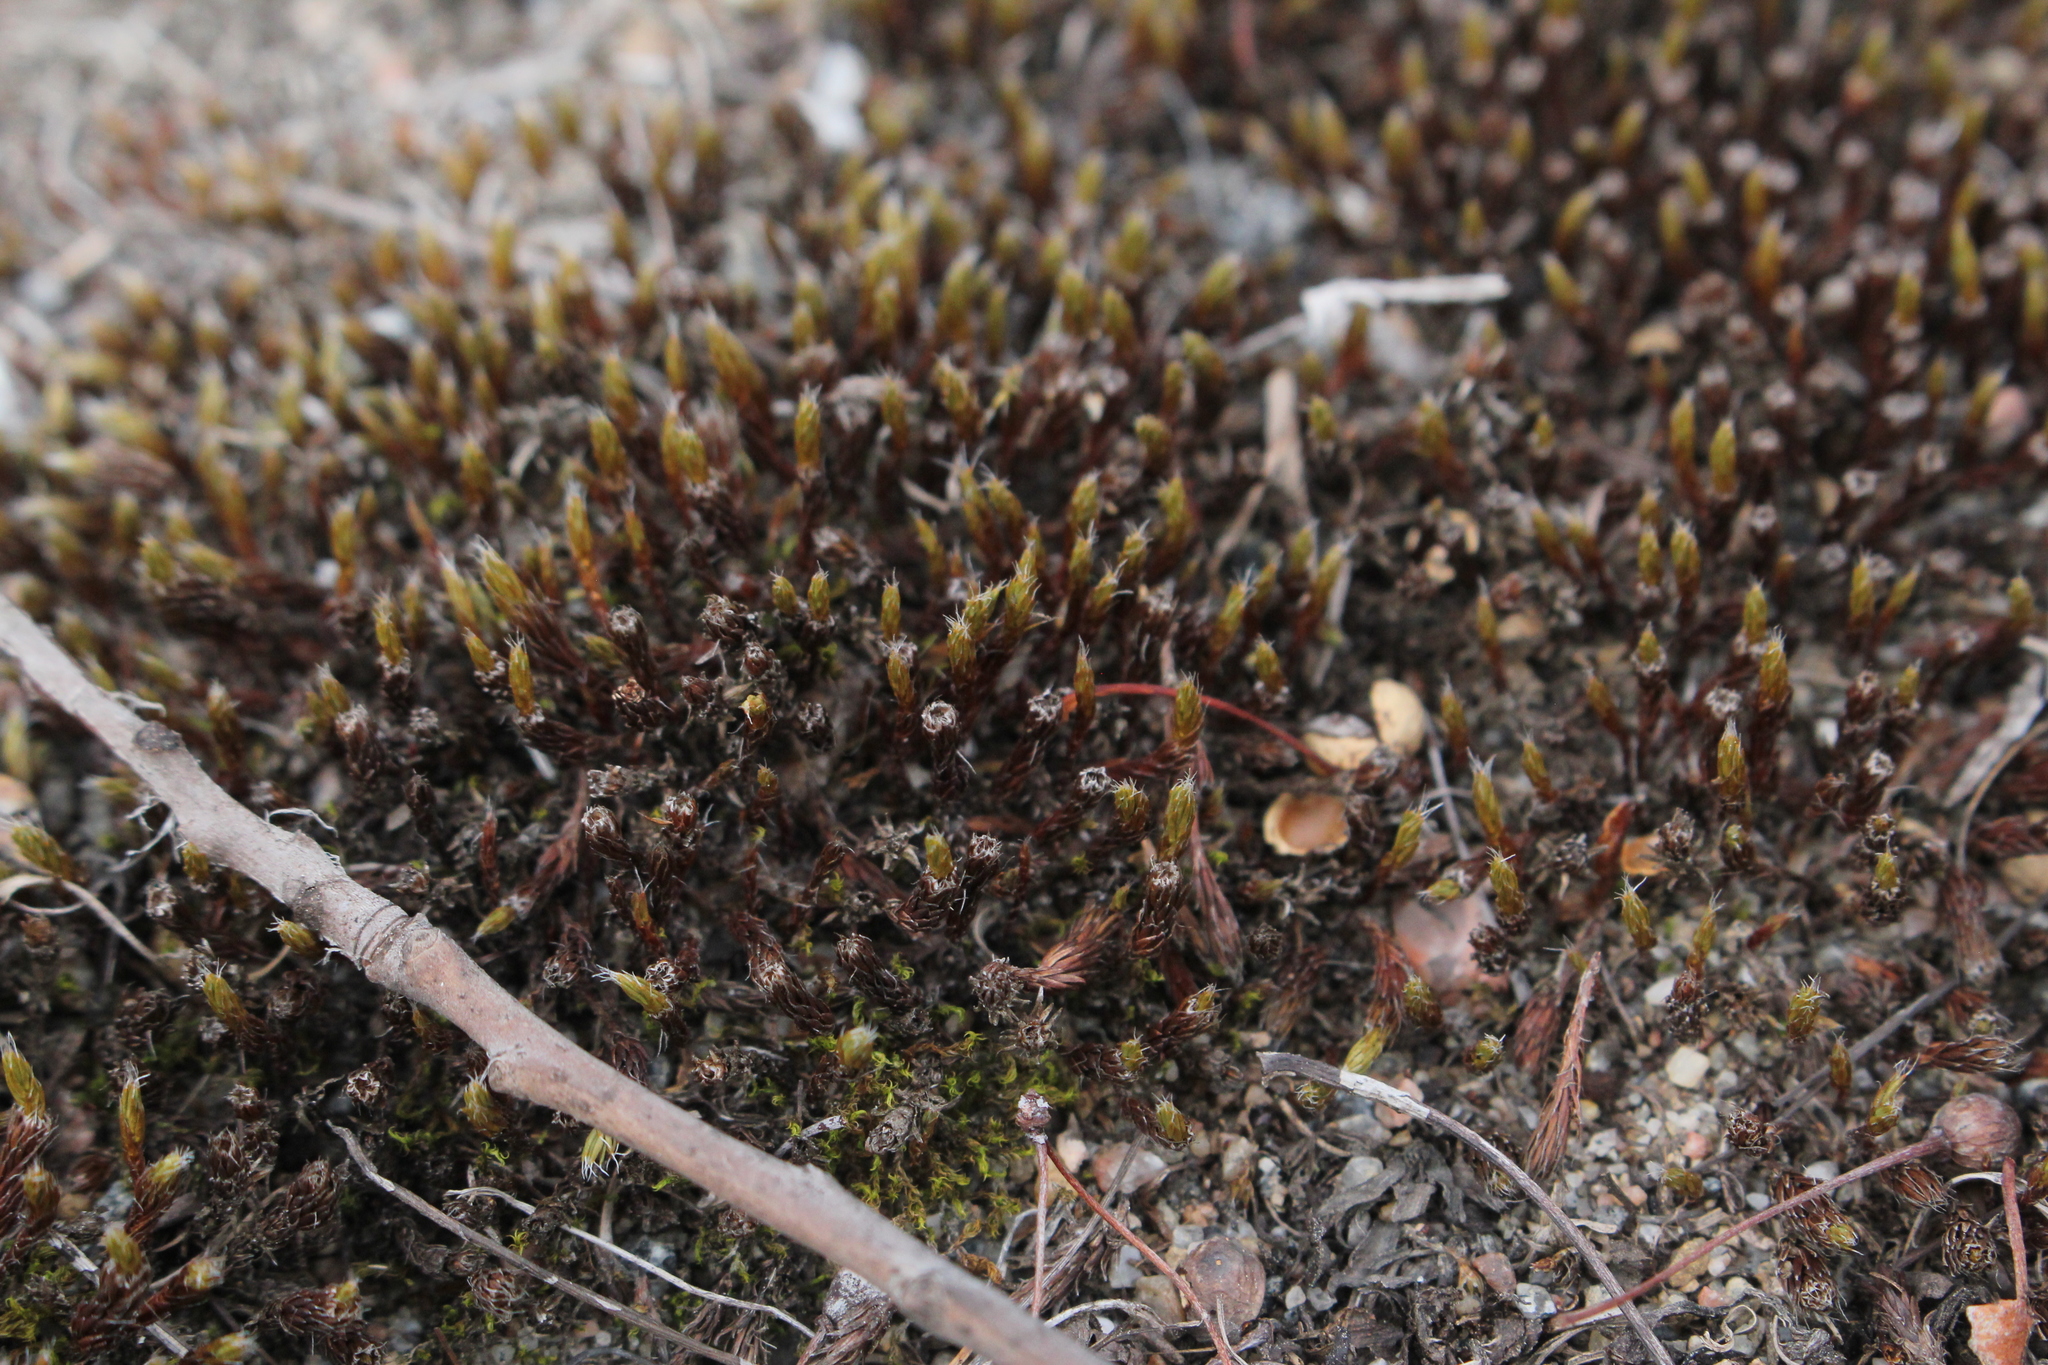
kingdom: Plantae
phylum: Bryophyta
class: Polytrichopsida
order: Polytrichales
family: Polytrichaceae
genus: Polytrichum
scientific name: Polytrichum piliferum
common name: Bristly haircap
